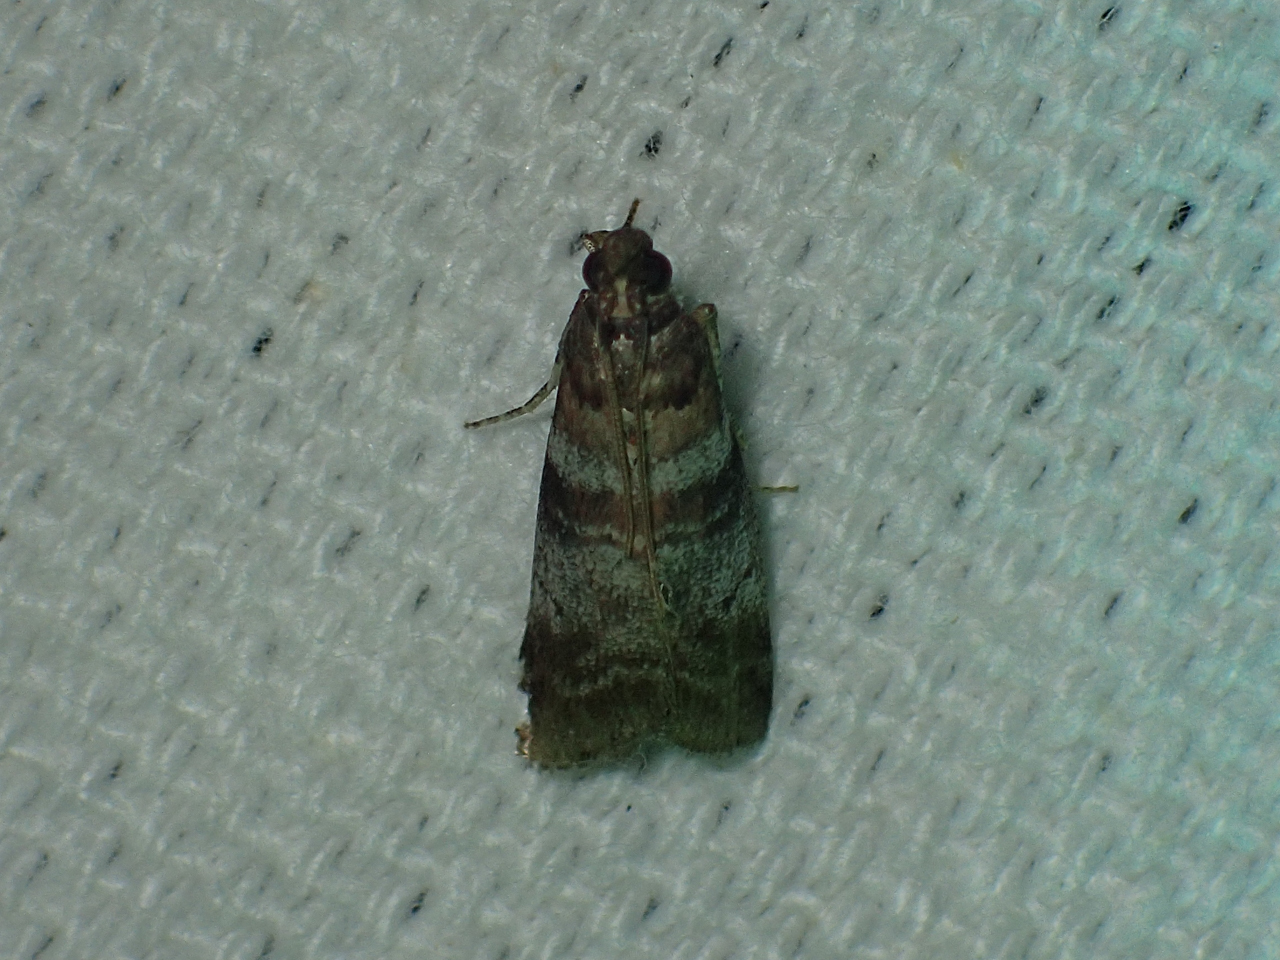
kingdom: Animalia
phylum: Arthropoda
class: Insecta
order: Lepidoptera
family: Pyralidae
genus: Sciota
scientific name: Sciota uvinella
